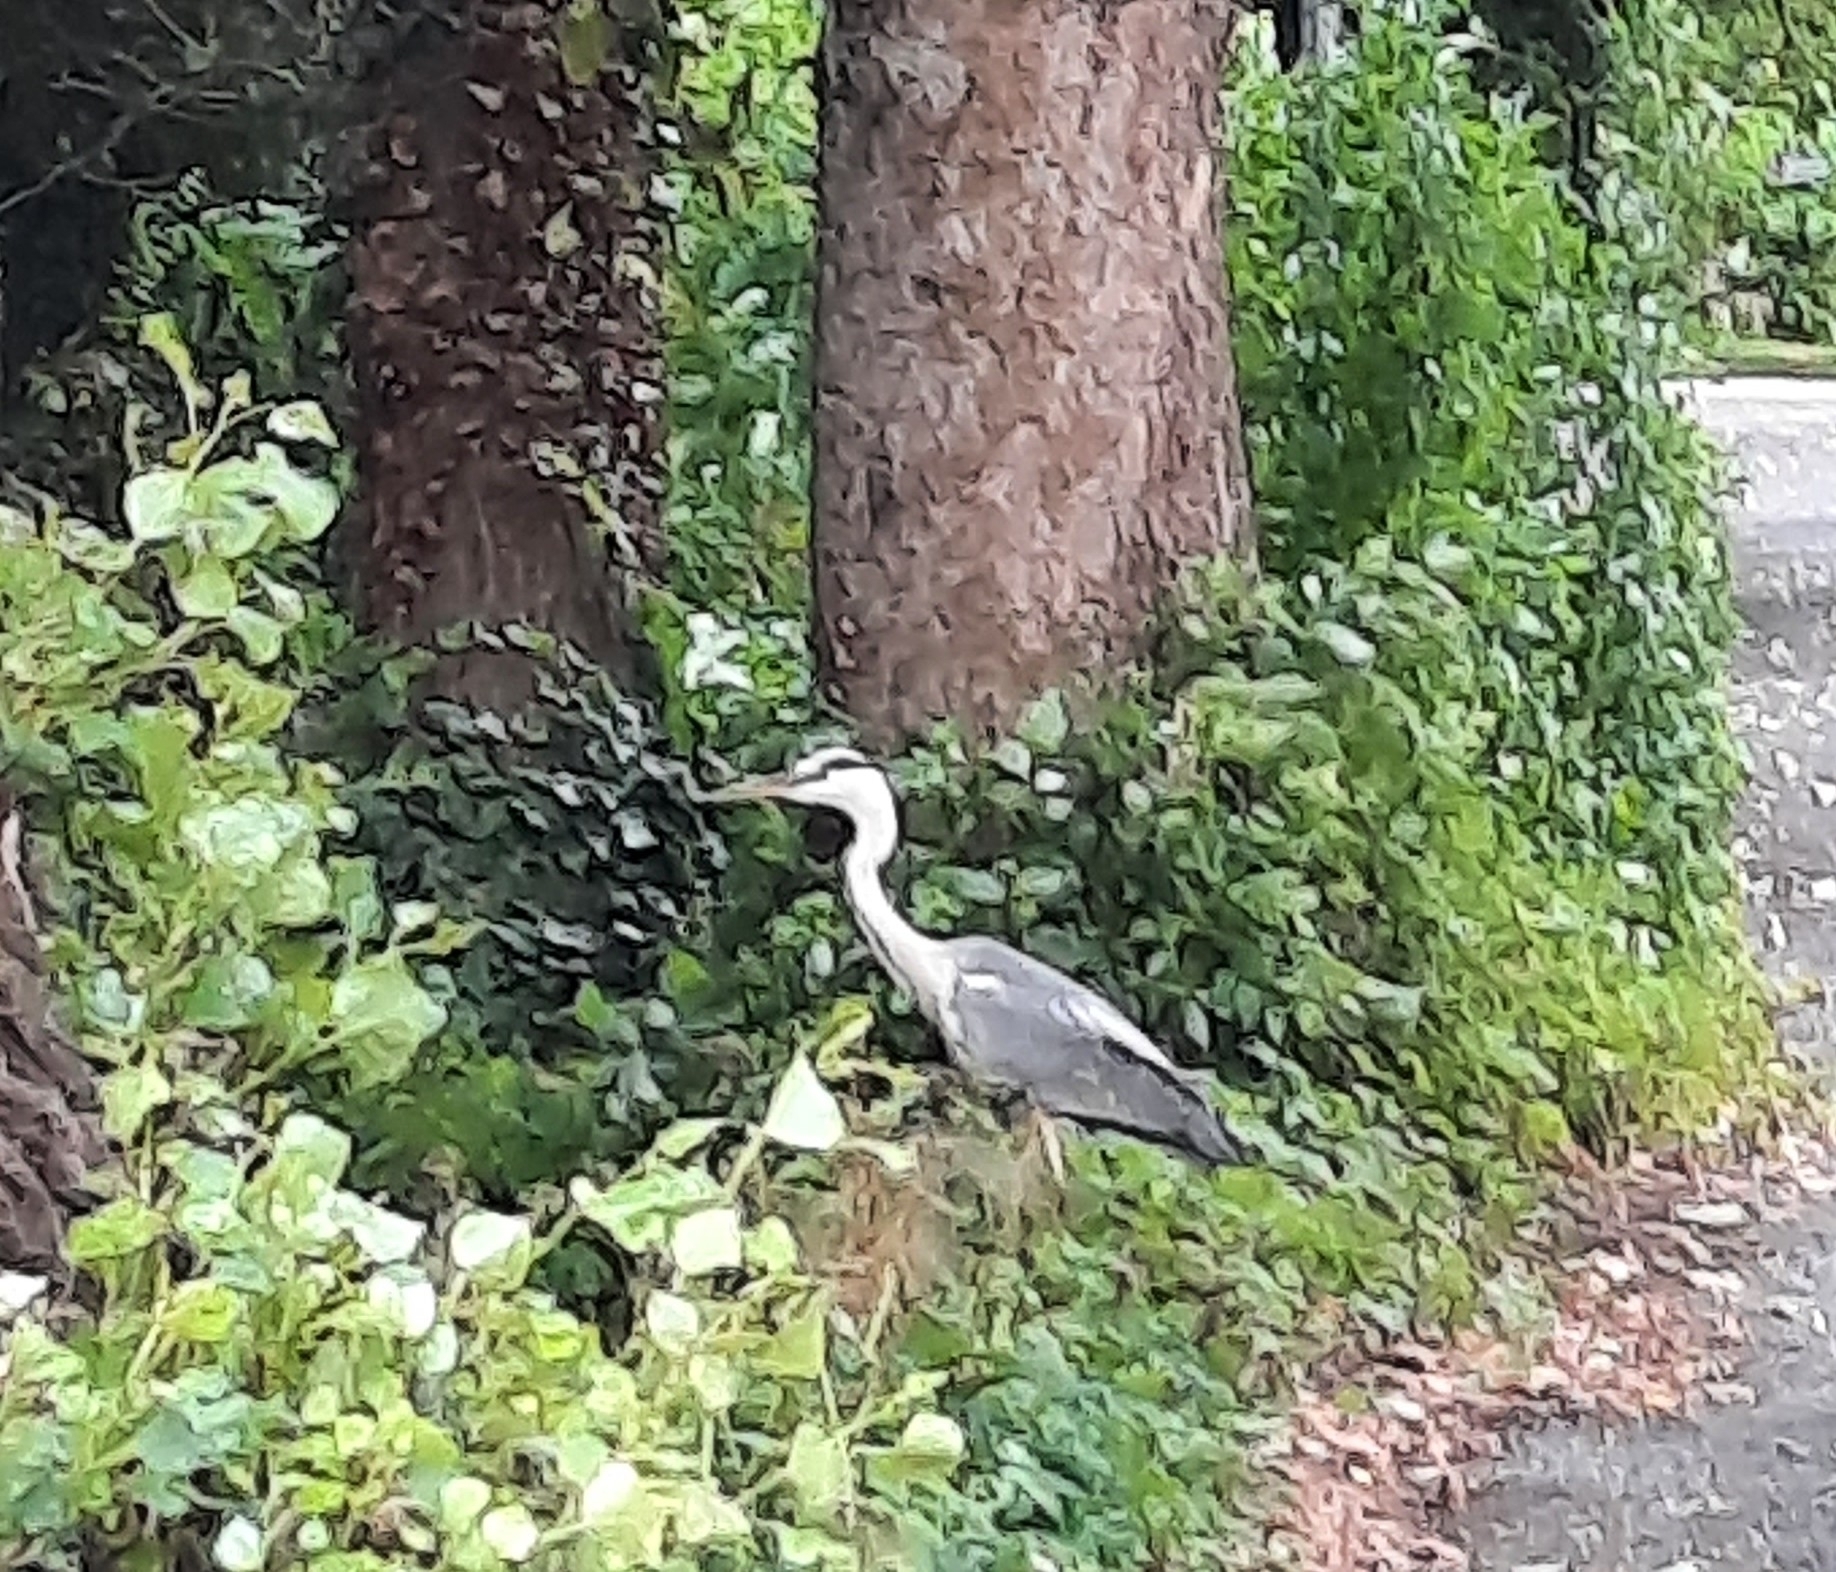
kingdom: Animalia
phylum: Chordata
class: Aves
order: Pelecaniformes
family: Ardeidae
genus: Ardea
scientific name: Ardea cinerea
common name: Grey heron
